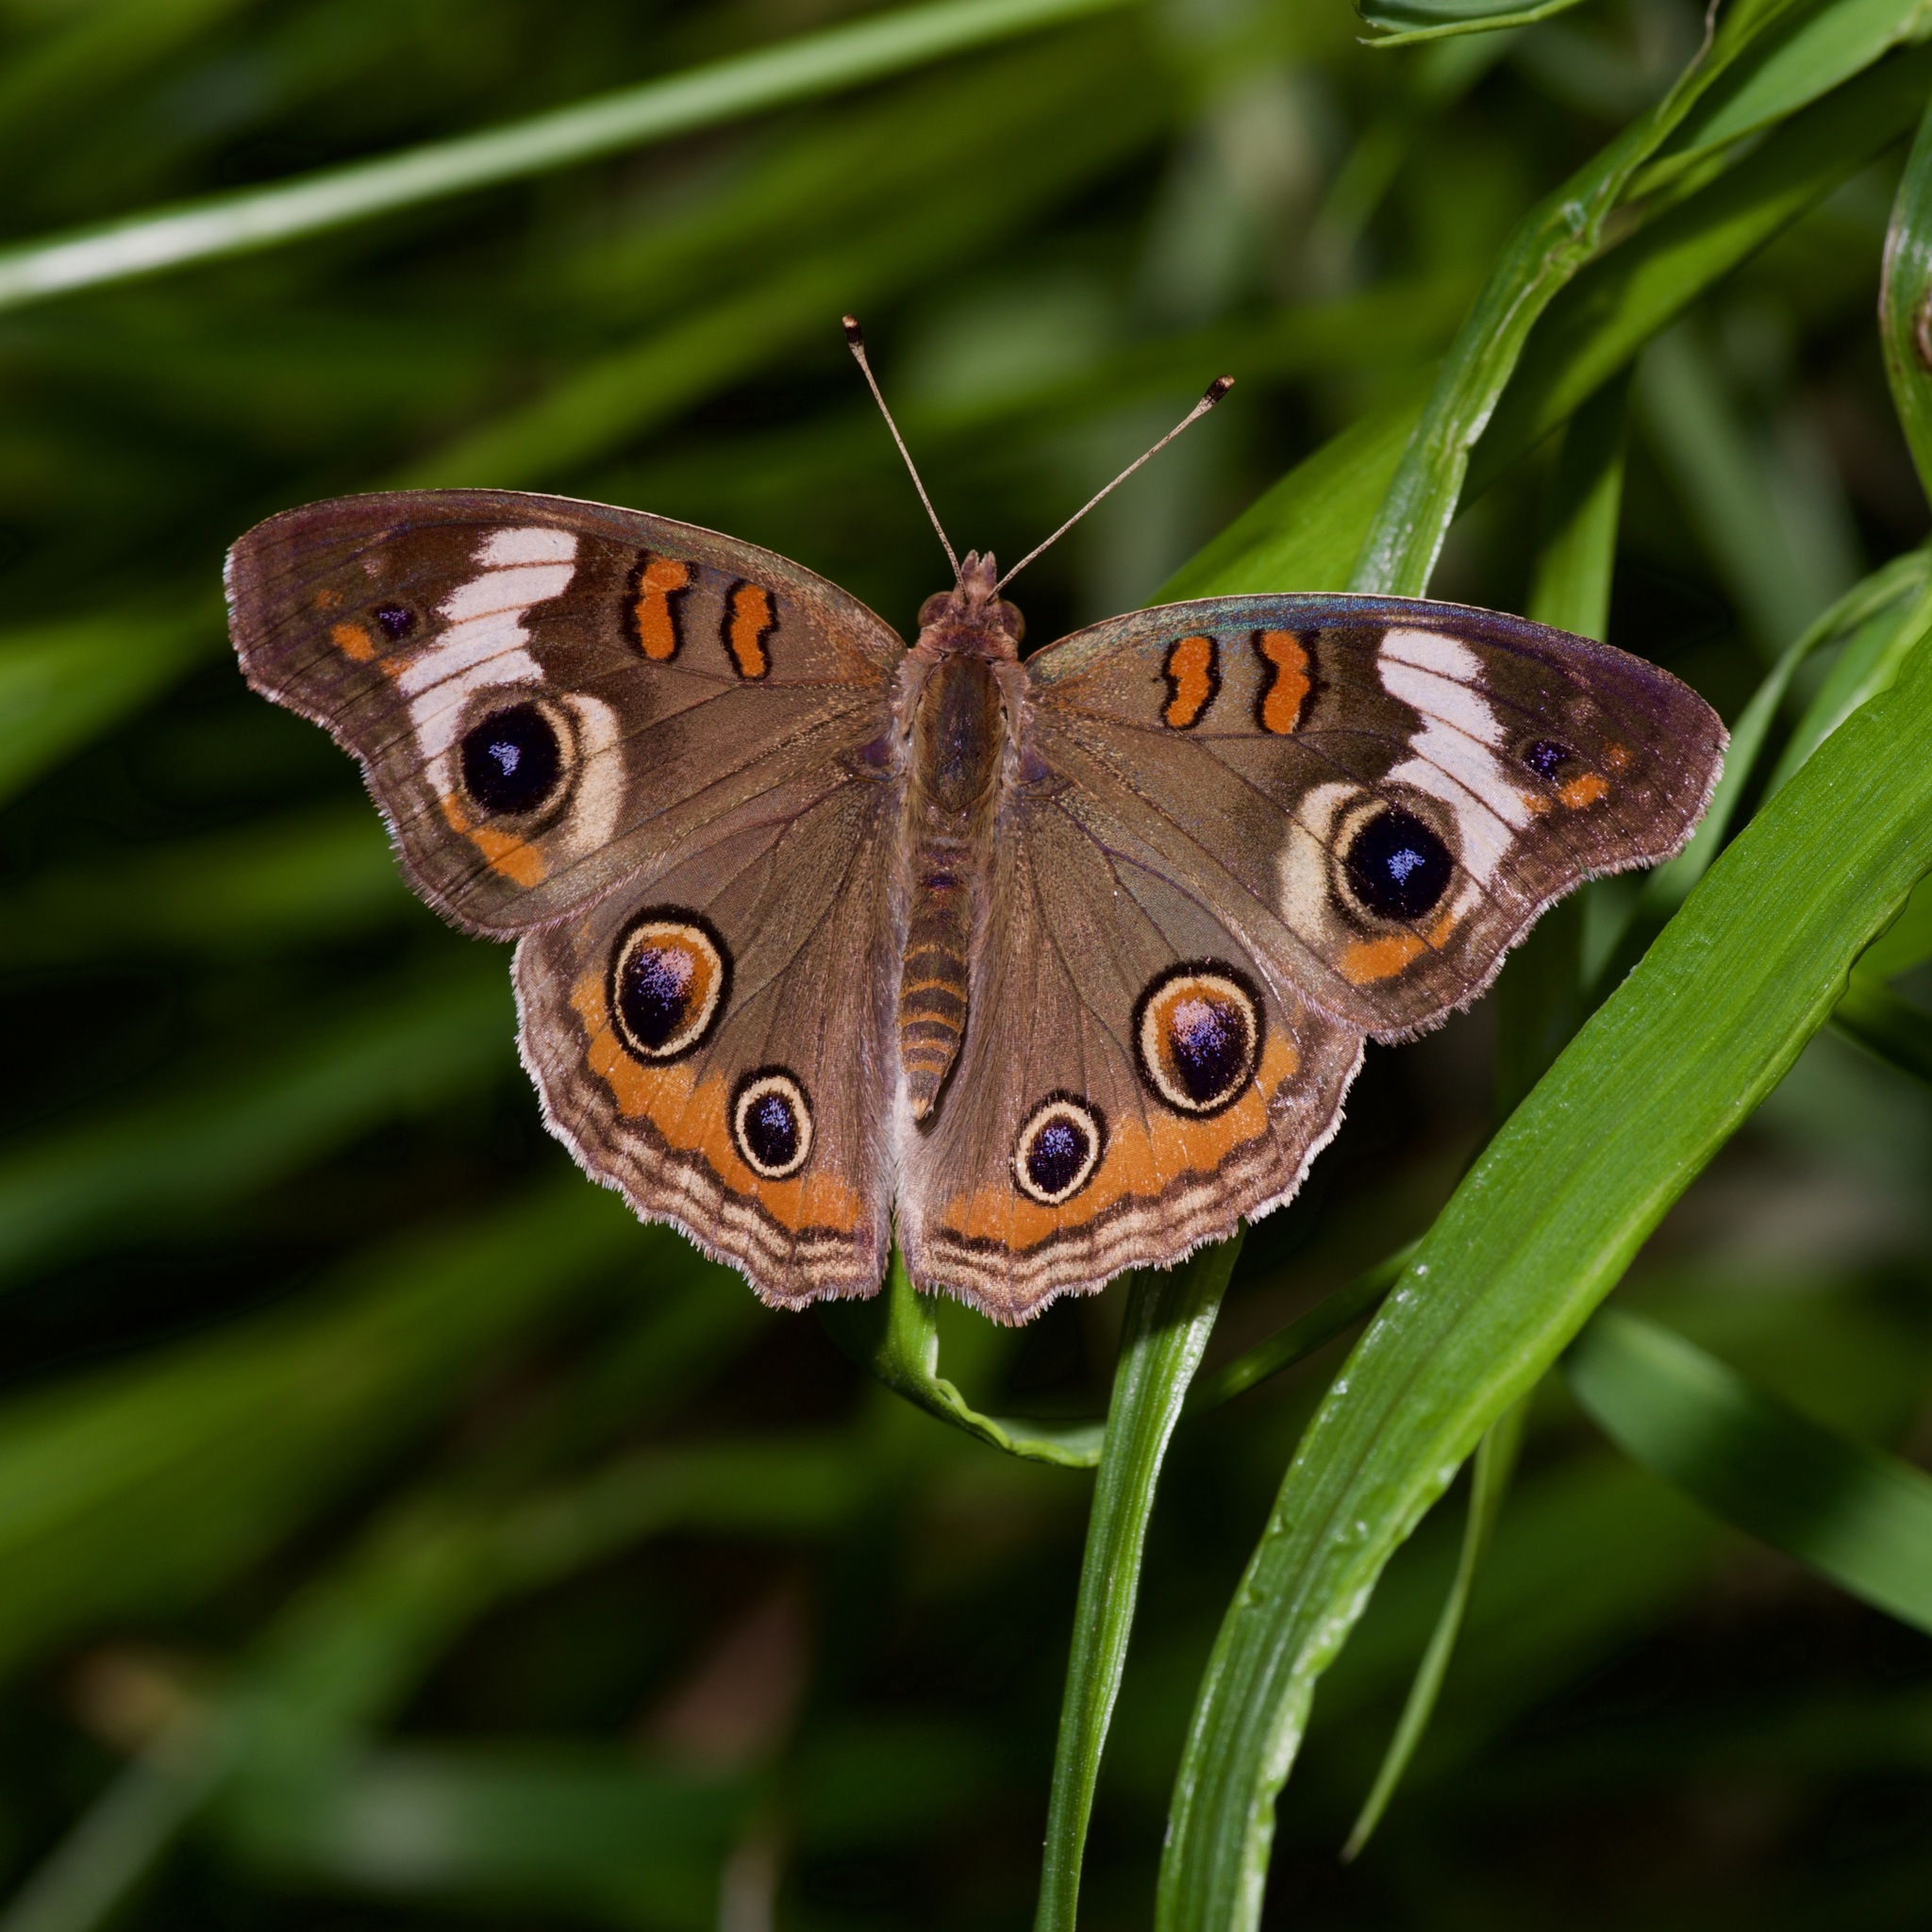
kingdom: Animalia
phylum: Arthropoda
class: Insecta
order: Lepidoptera
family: Nymphalidae
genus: Junonia
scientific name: Junonia coenia
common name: Common buckeye
